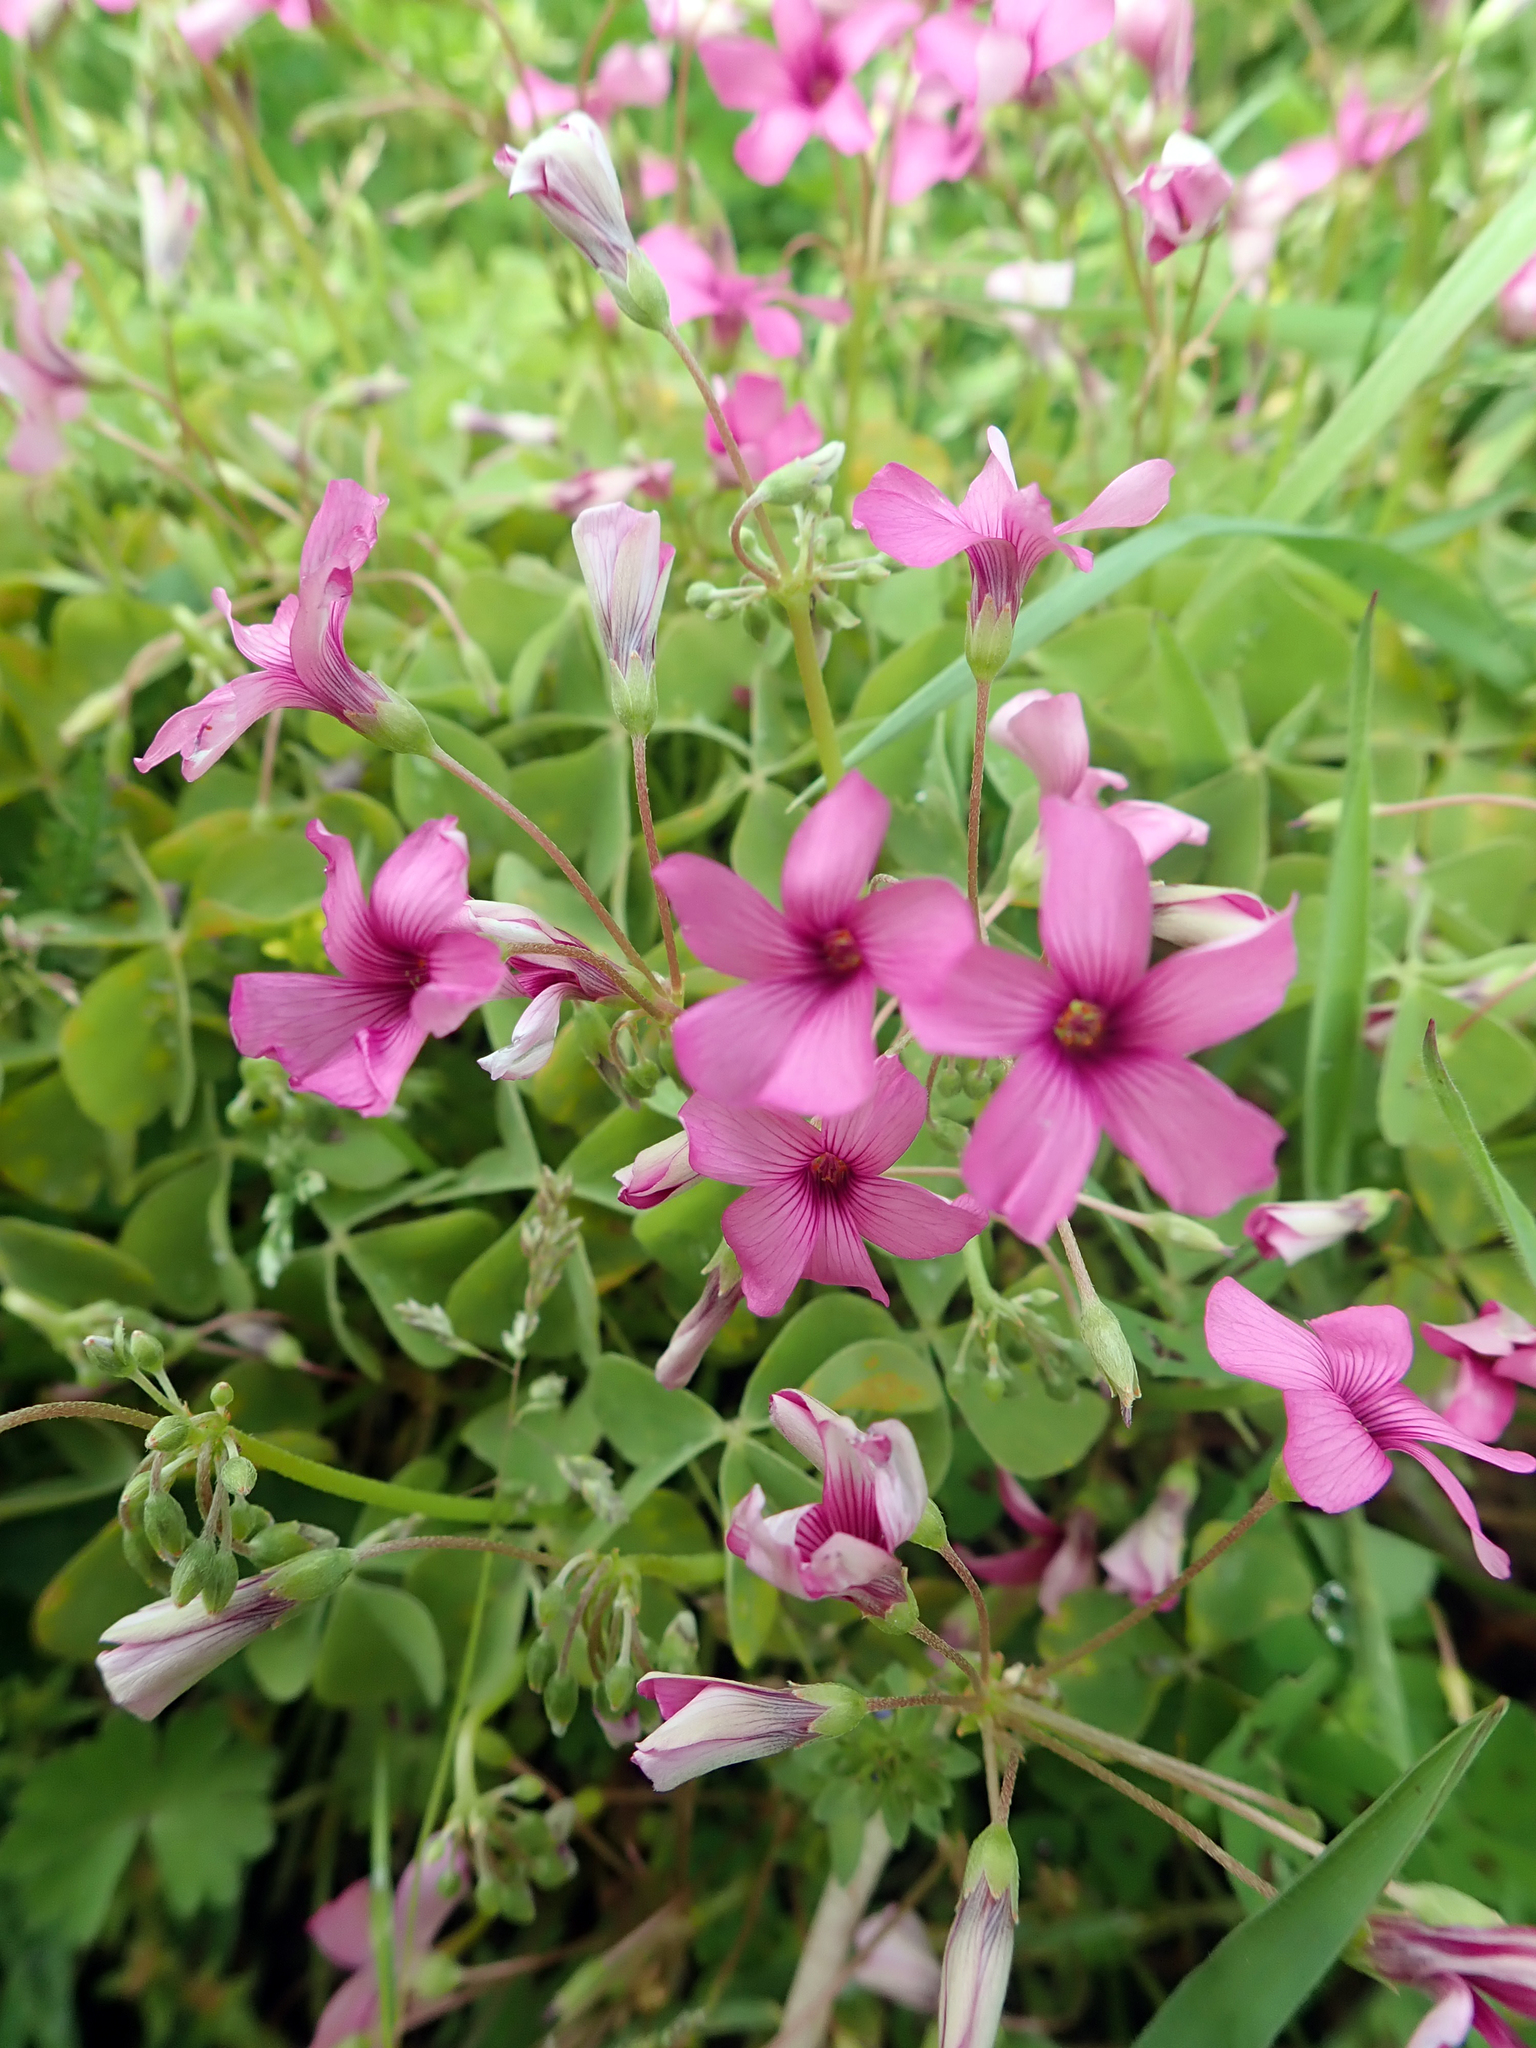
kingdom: Plantae
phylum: Tracheophyta
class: Magnoliopsida
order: Oxalidales
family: Oxalidaceae
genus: Oxalis
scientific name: Oxalis articulata
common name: Pink-sorrel
